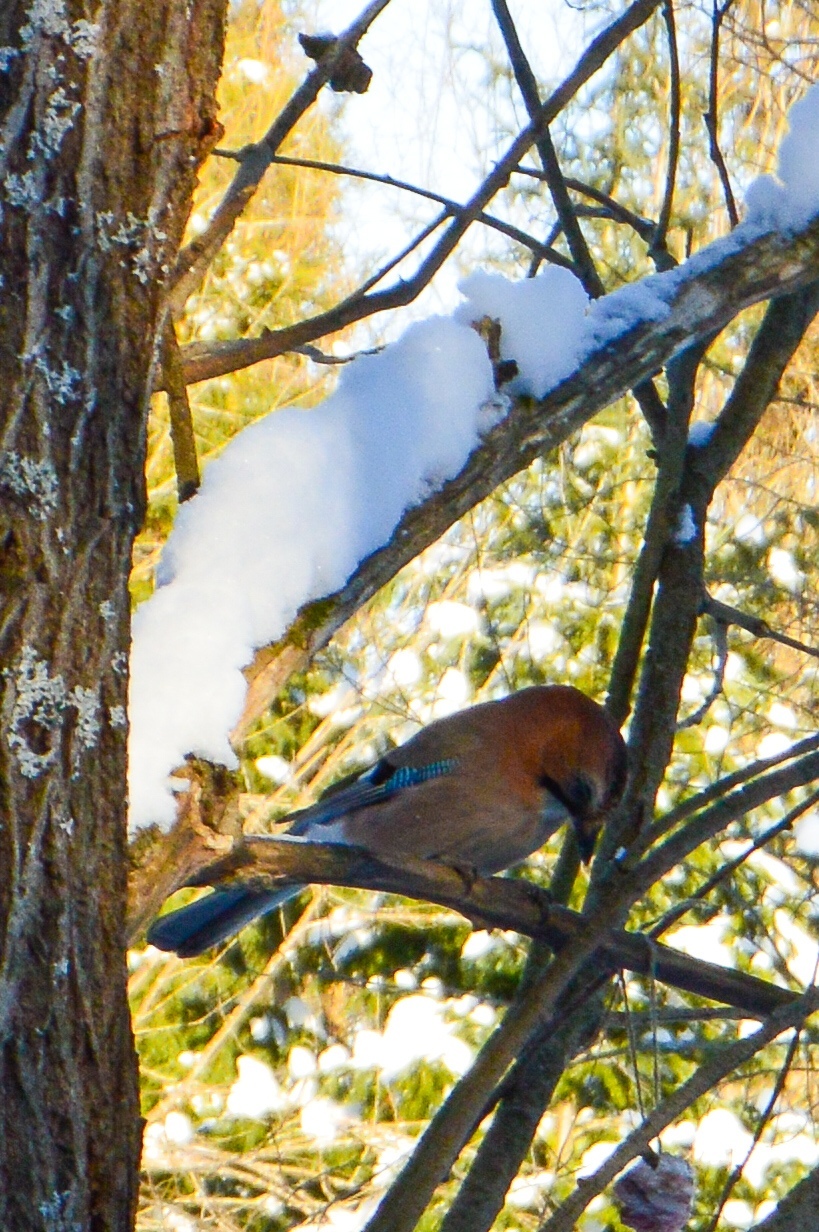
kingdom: Animalia
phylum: Chordata
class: Aves
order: Passeriformes
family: Corvidae
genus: Garrulus
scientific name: Garrulus glandarius
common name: Eurasian jay
